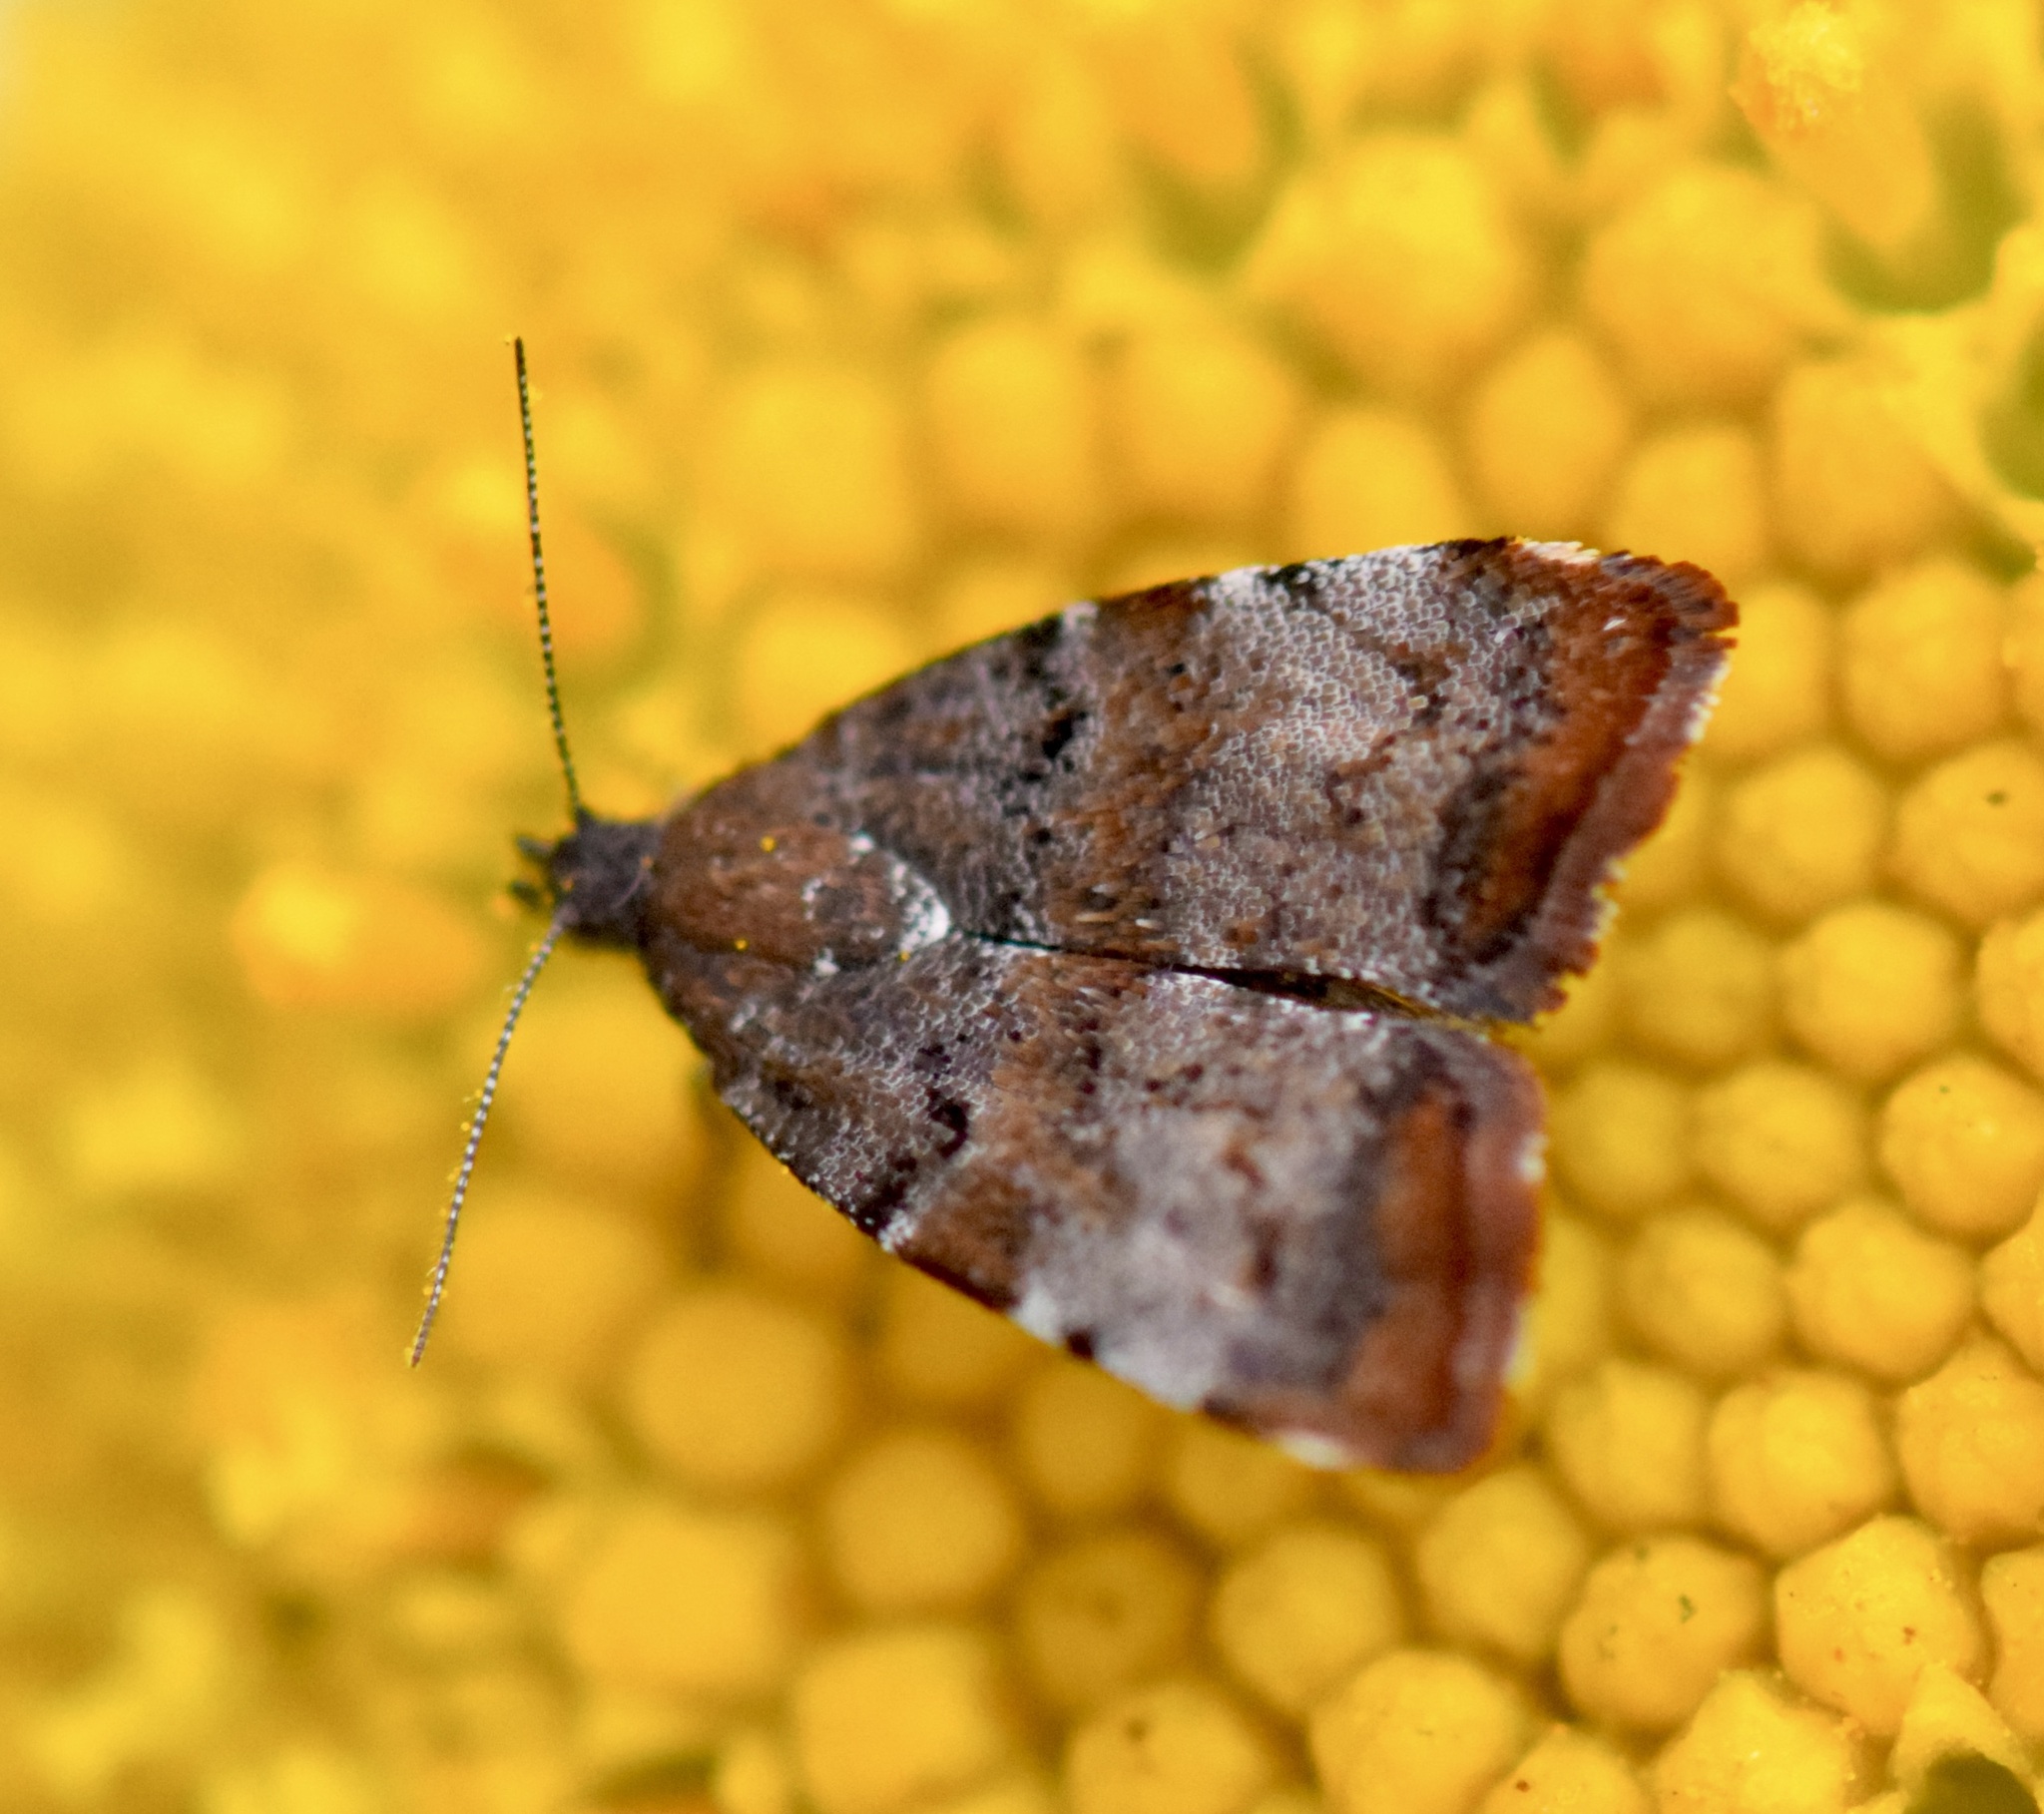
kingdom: Animalia
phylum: Arthropoda
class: Insecta
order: Lepidoptera
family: Choreutidae
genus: Choreutis
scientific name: Choreutis pariana
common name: Apple leaf skeletoniser
